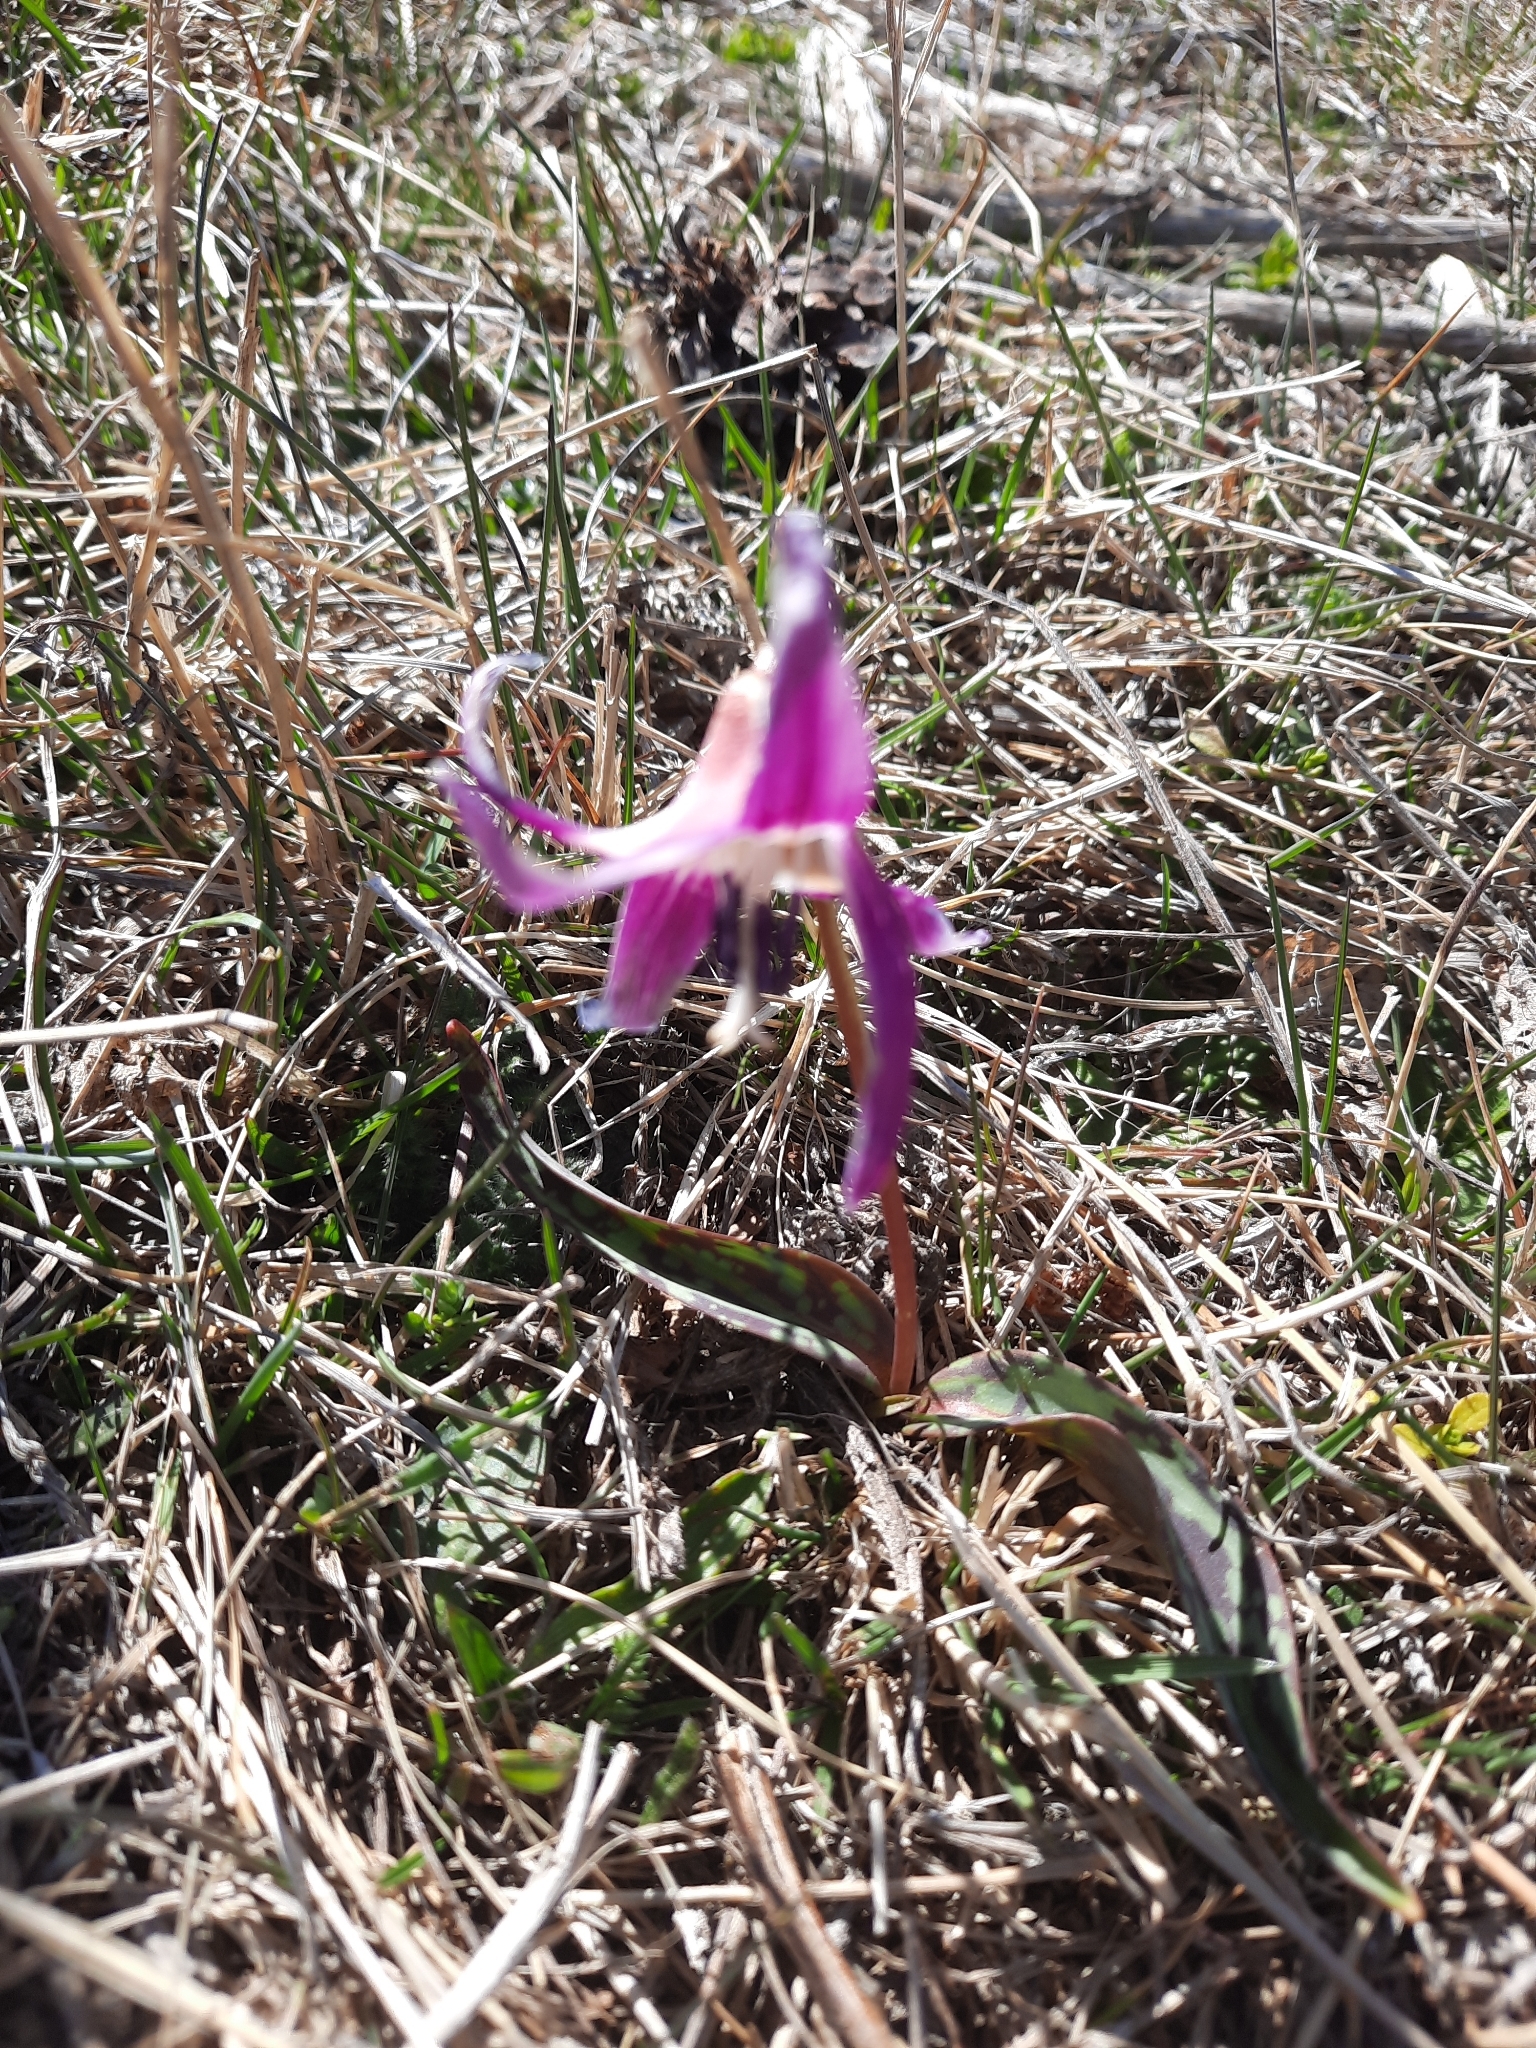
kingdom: Plantae
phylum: Tracheophyta
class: Liliopsida
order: Liliales
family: Liliaceae
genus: Erythronium
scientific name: Erythronium dens-canis
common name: Dog's-tooth-violet
